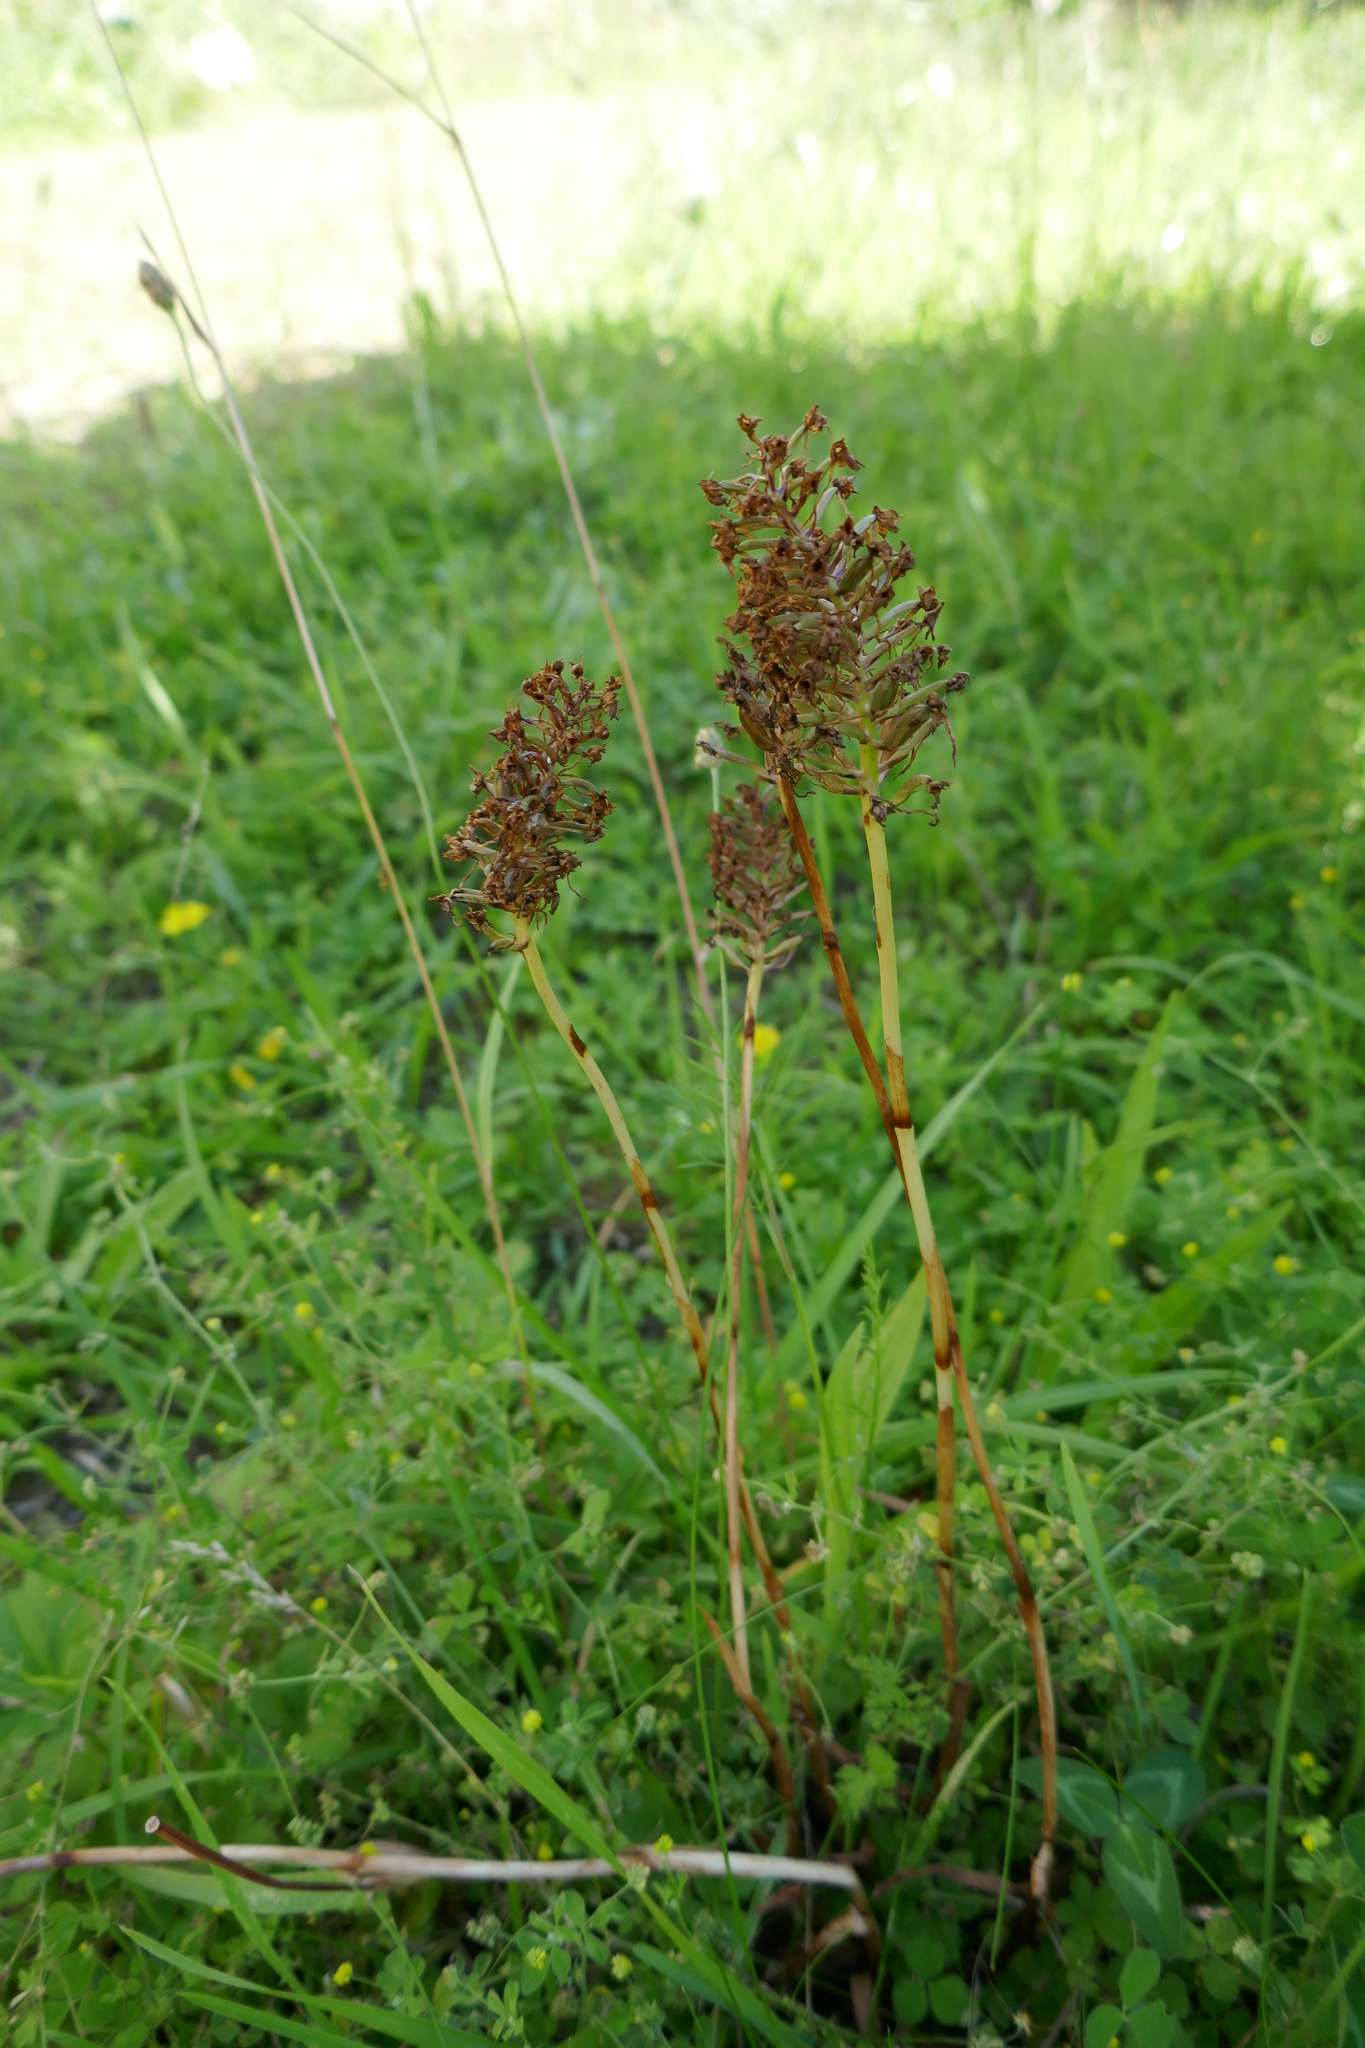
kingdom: Plantae
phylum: Tracheophyta
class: Liliopsida
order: Asparagales
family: Orchidaceae
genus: Anacamptis
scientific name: Anacamptis pyramidalis
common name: Pyramidal orchid
